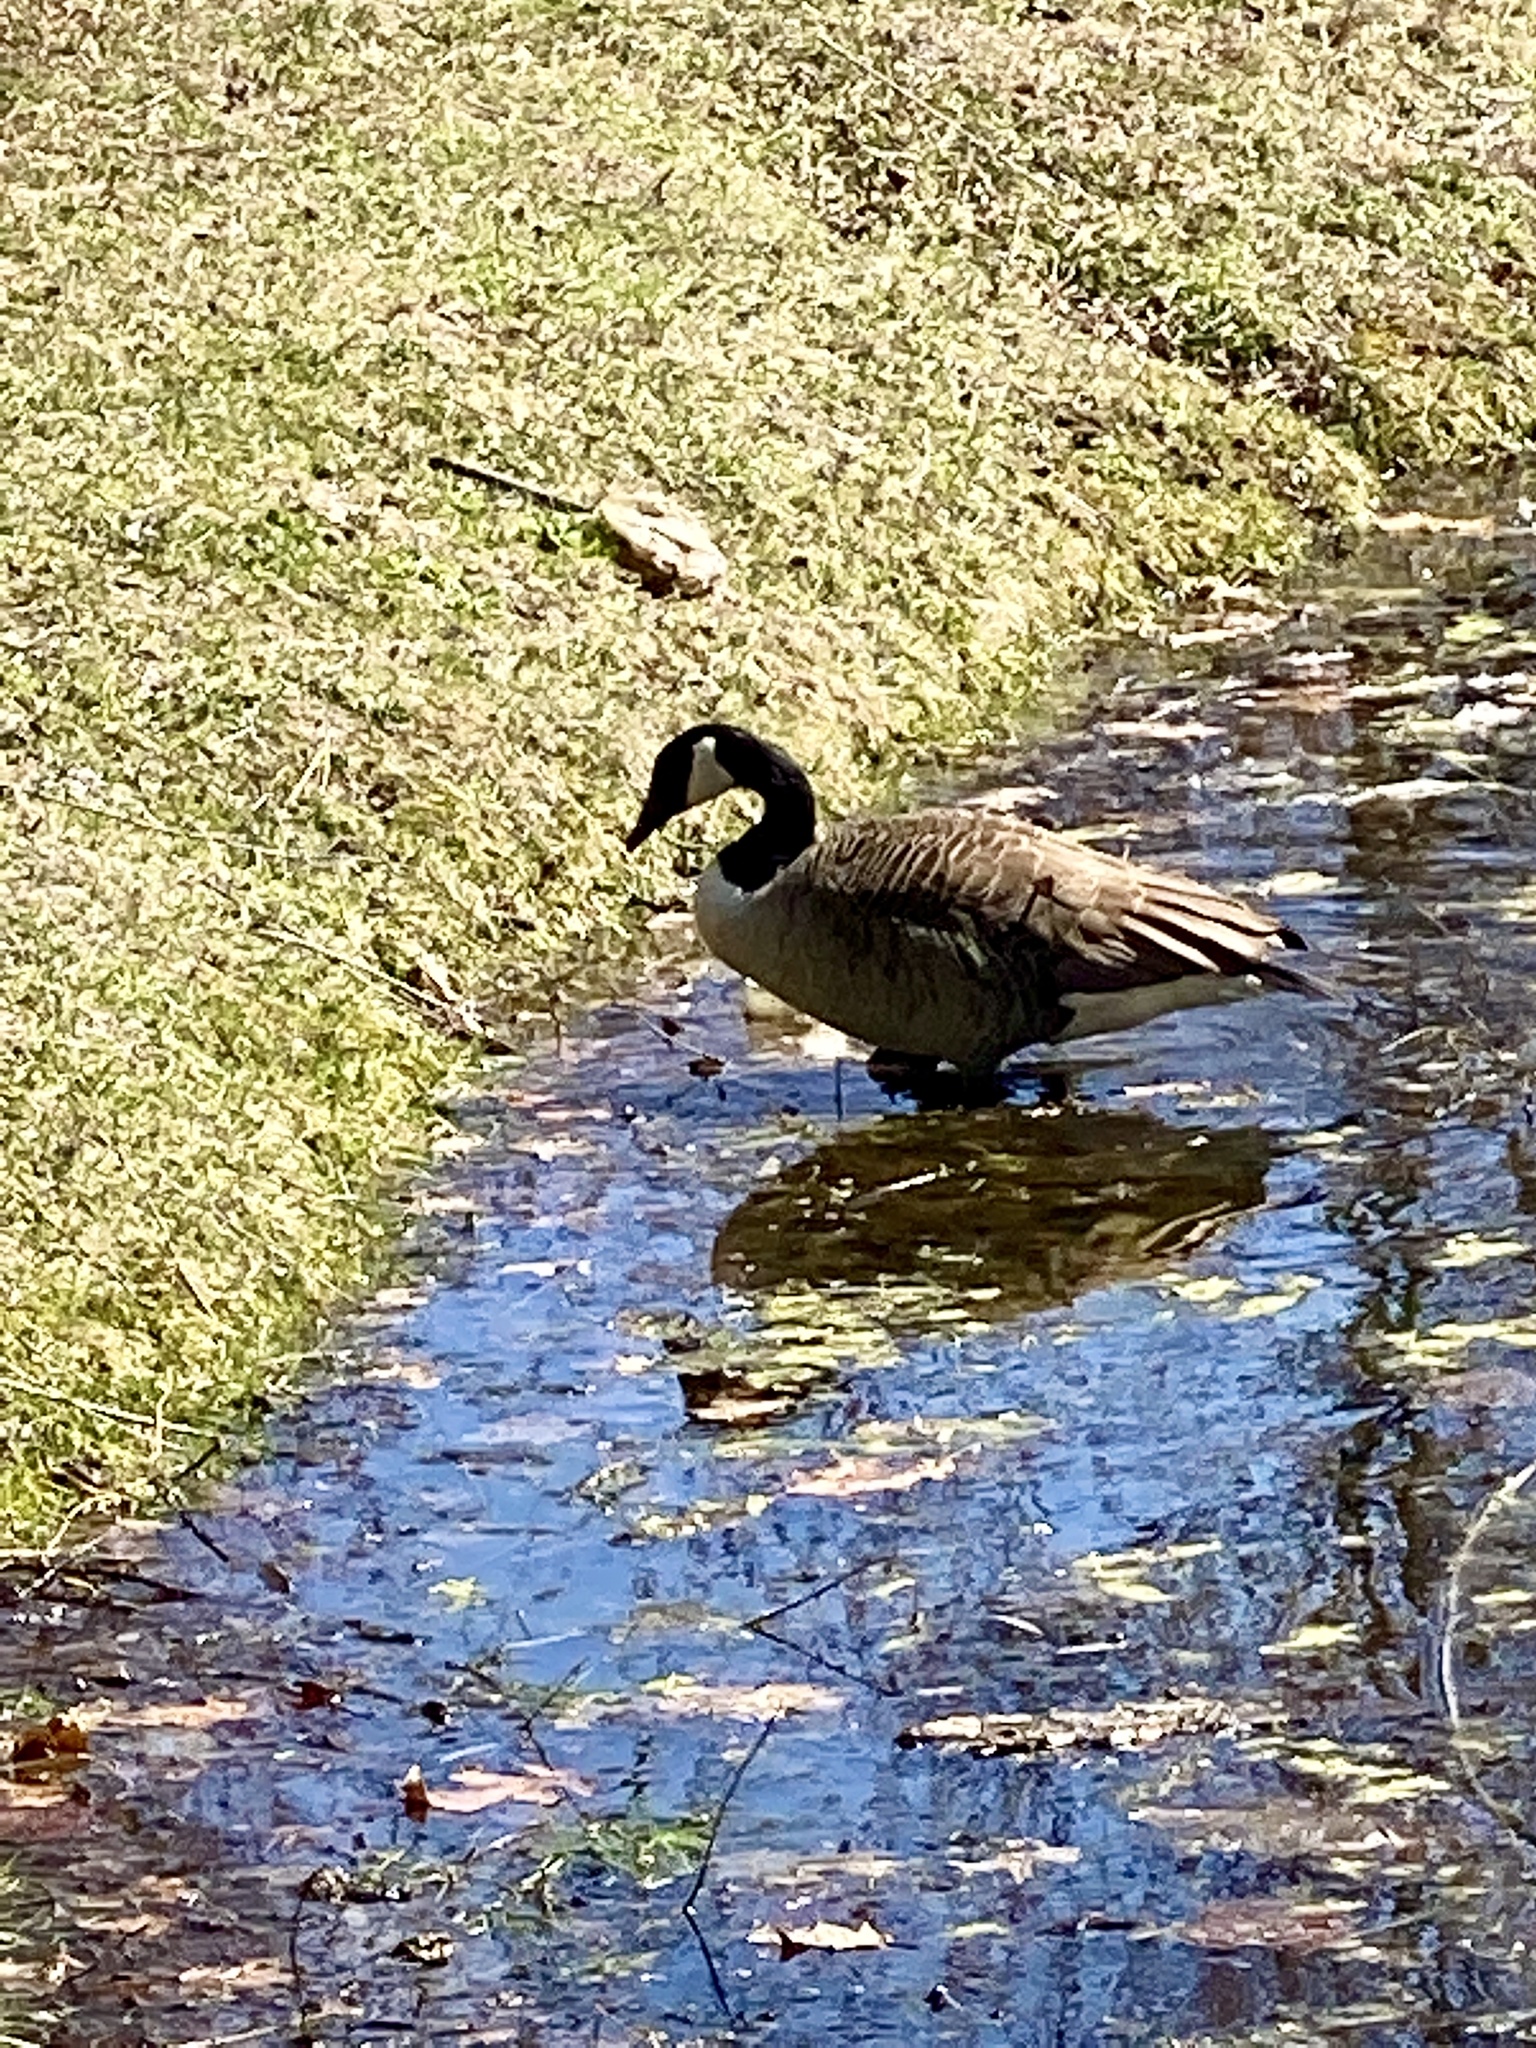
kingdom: Animalia
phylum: Chordata
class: Aves
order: Anseriformes
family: Anatidae
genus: Branta
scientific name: Branta canadensis
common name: Canada goose
